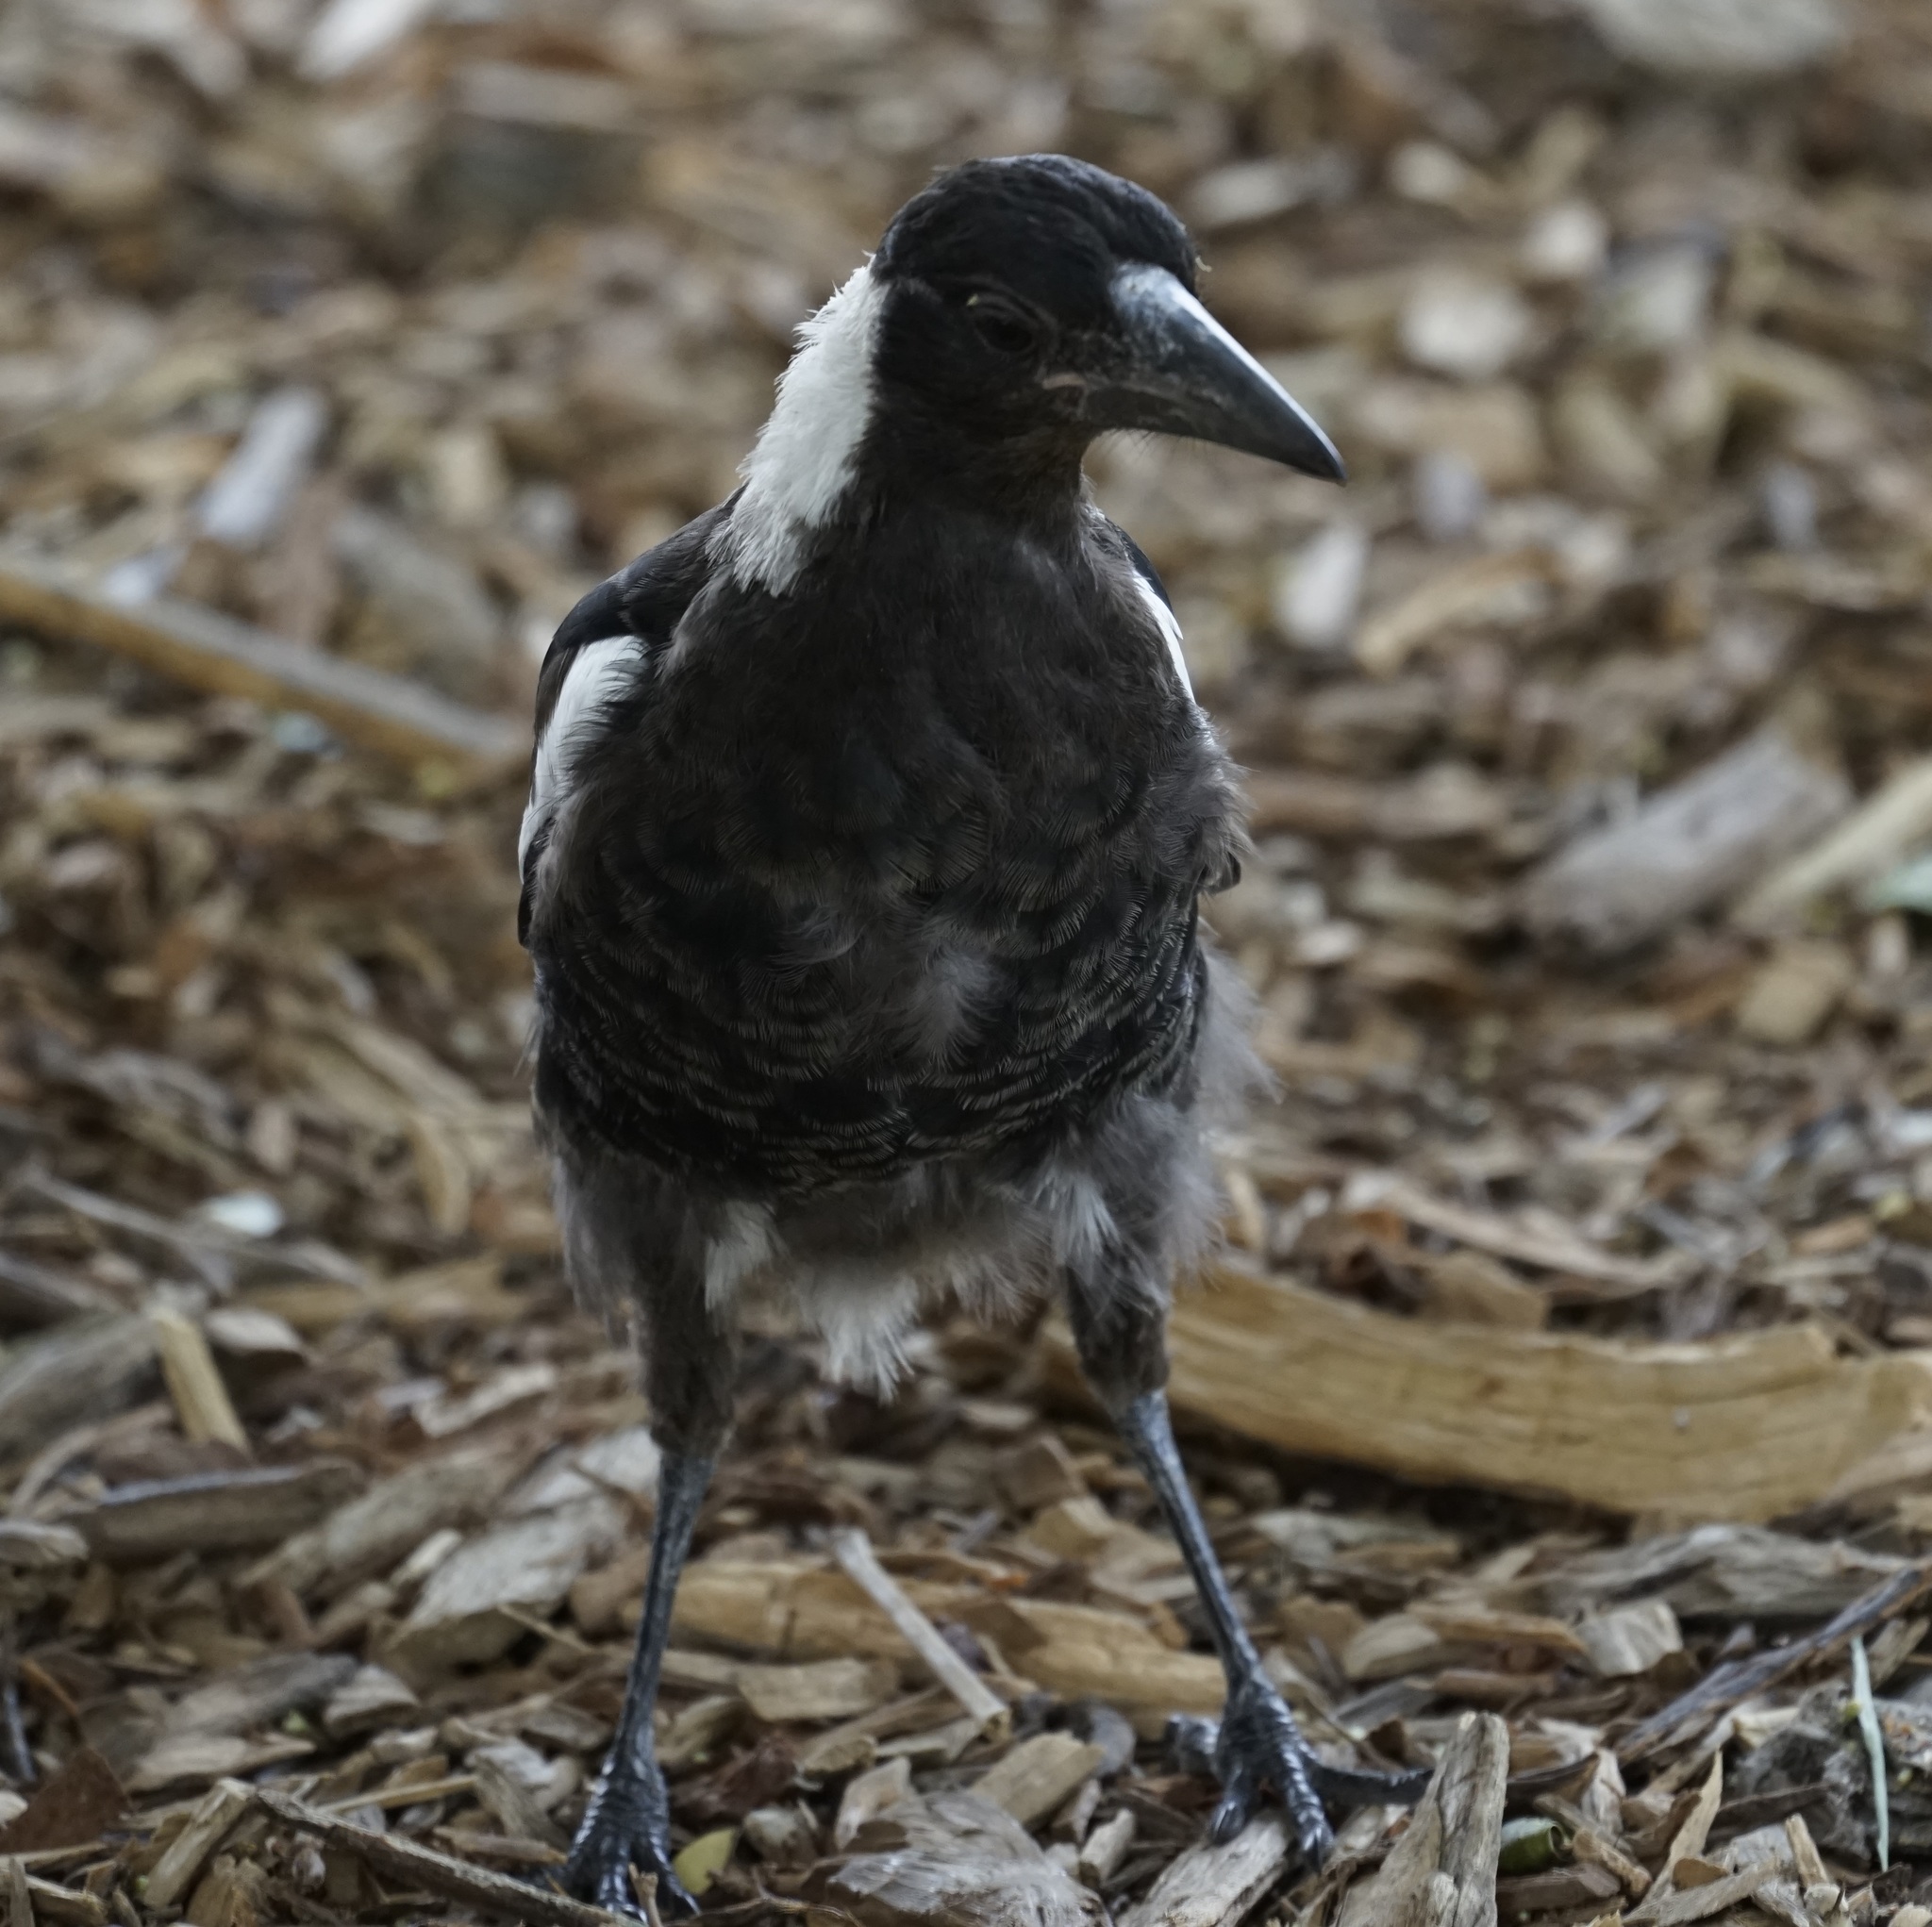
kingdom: Animalia
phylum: Chordata
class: Aves
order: Passeriformes
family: Cracticidae
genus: Gymnorhina
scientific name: Gymnorhina tibicen
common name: Australian magpie
